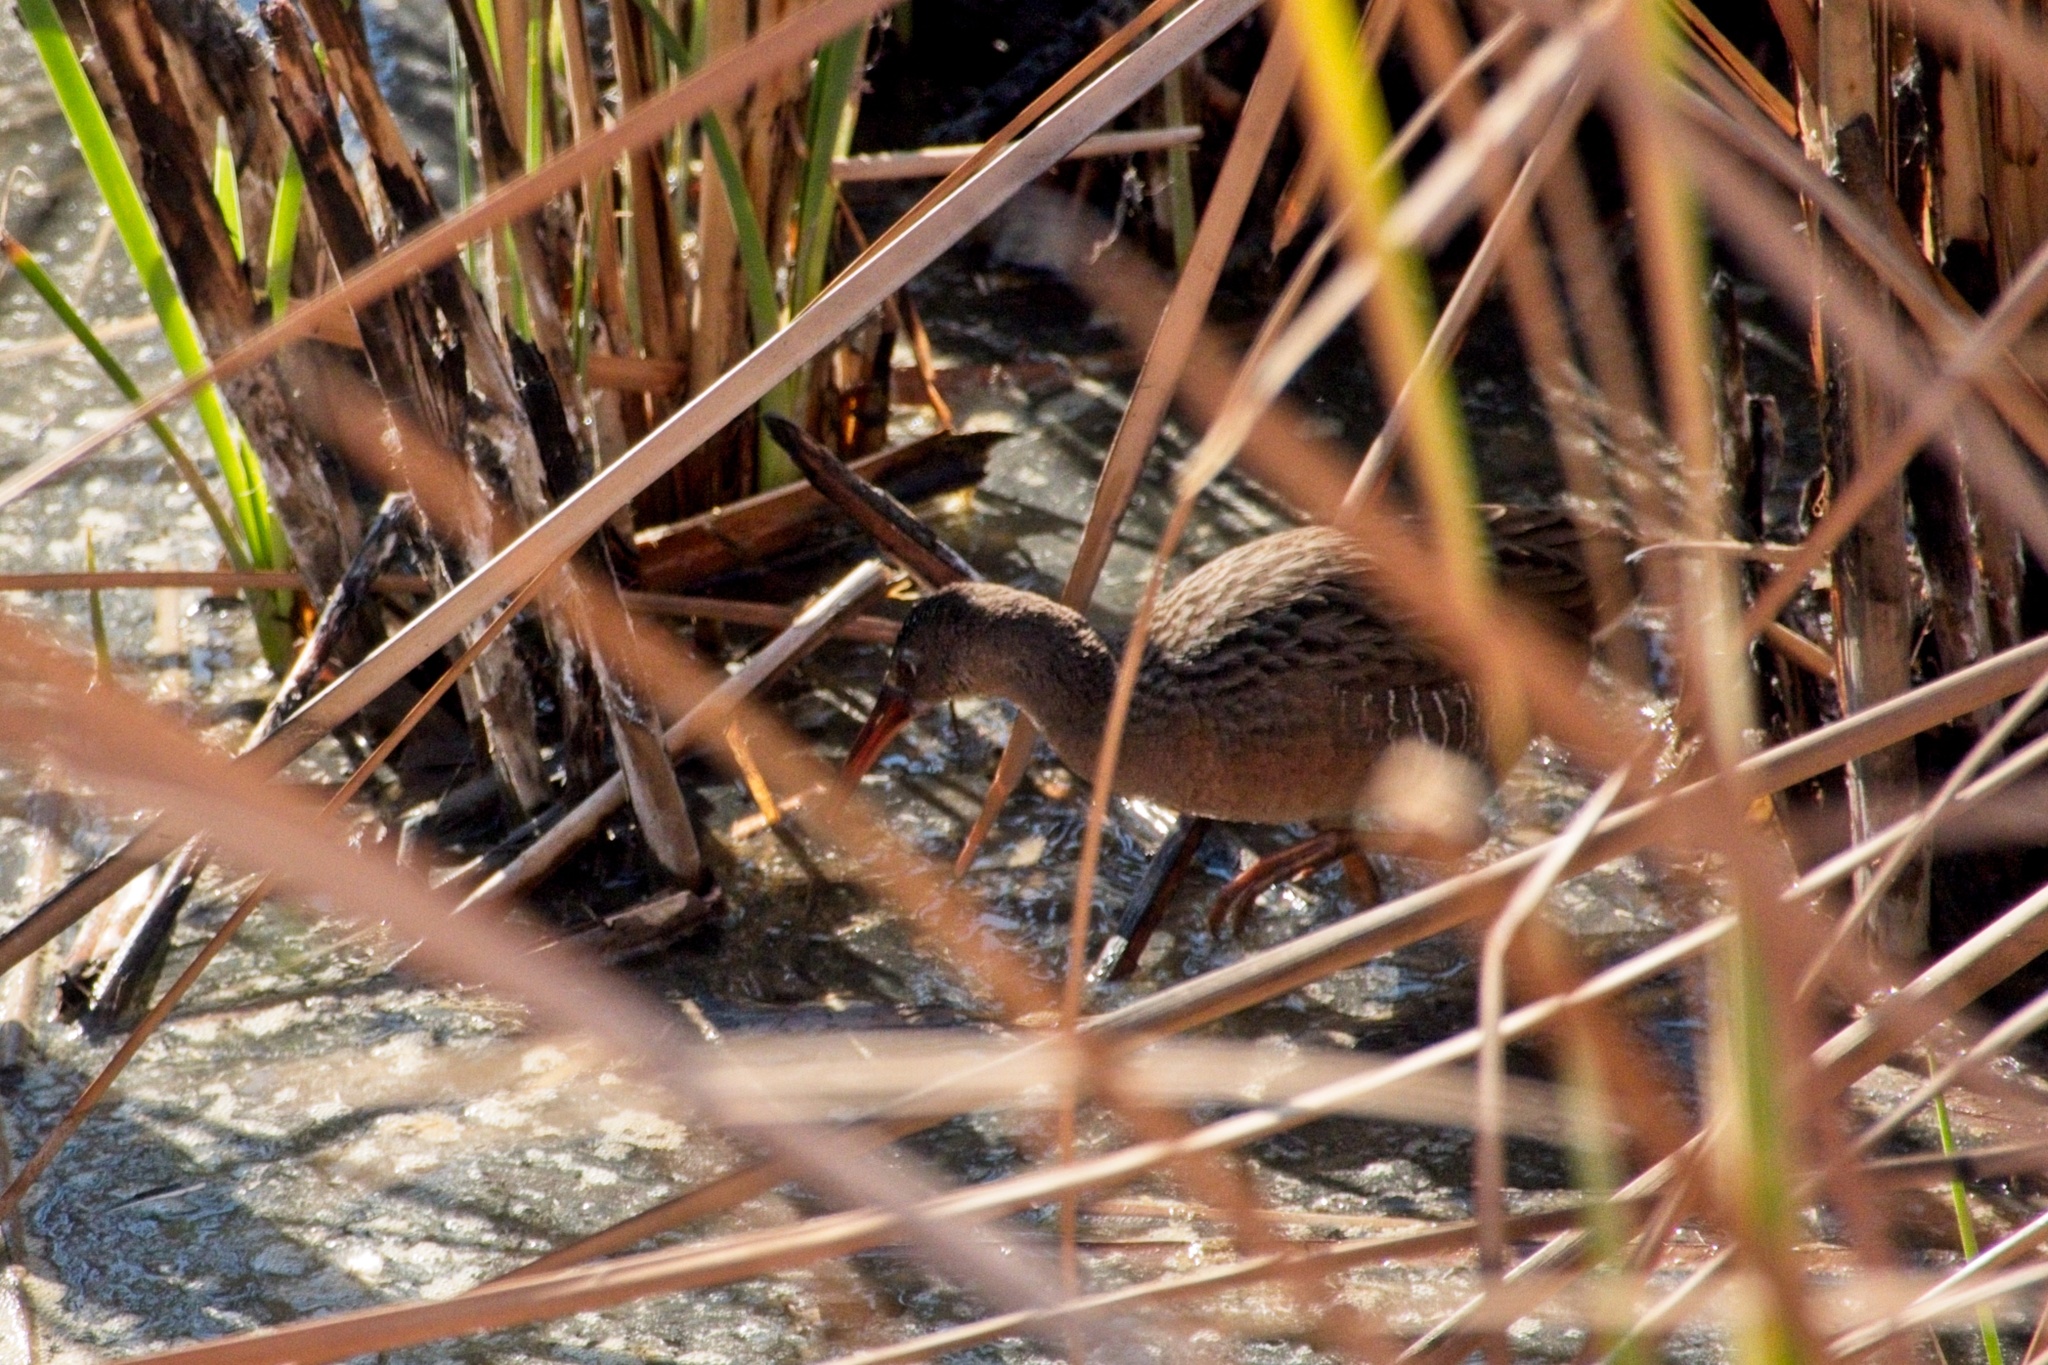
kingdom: Animalia
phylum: Chordata
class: Aves
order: Gruiformes
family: Rallidae
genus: Rallus
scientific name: Rallus obsoletus
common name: Ridgway's rail
